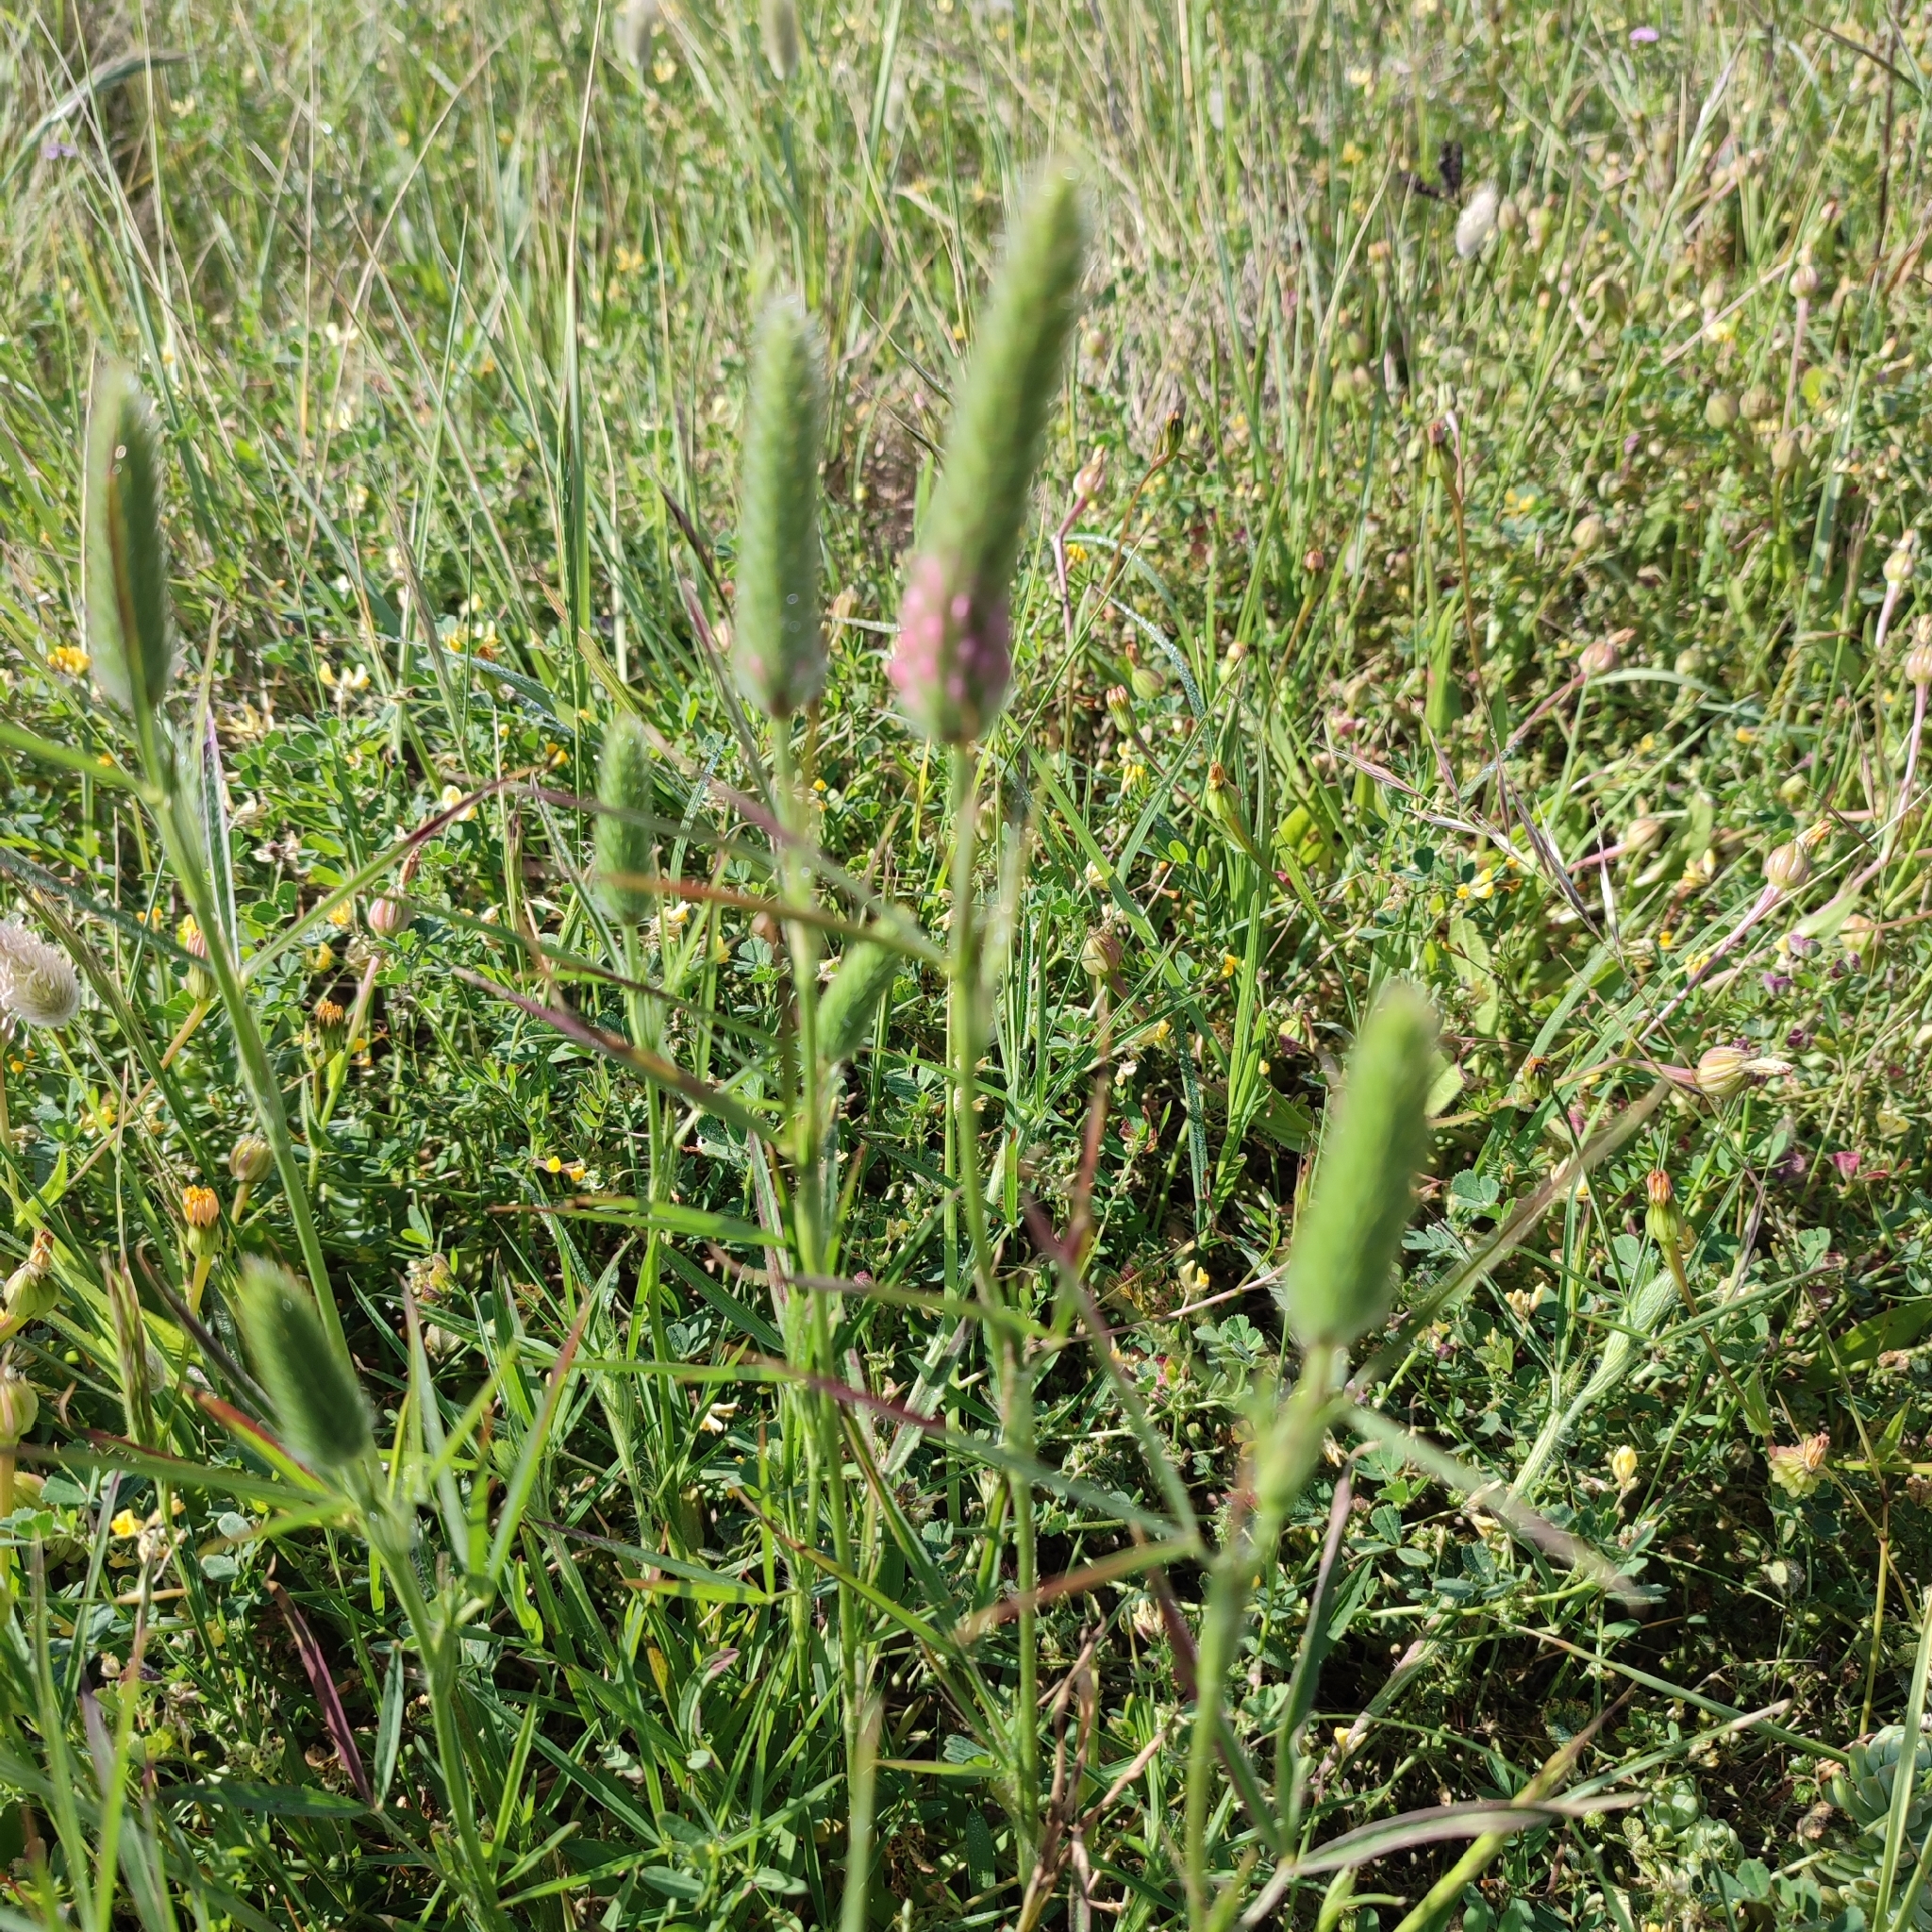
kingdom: Plantae
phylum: Tracheophyta
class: Magnoliopsida
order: Fabales
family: Fabaceae
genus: Trifolium
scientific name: Trifolium angustifolium
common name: Narrow clover
